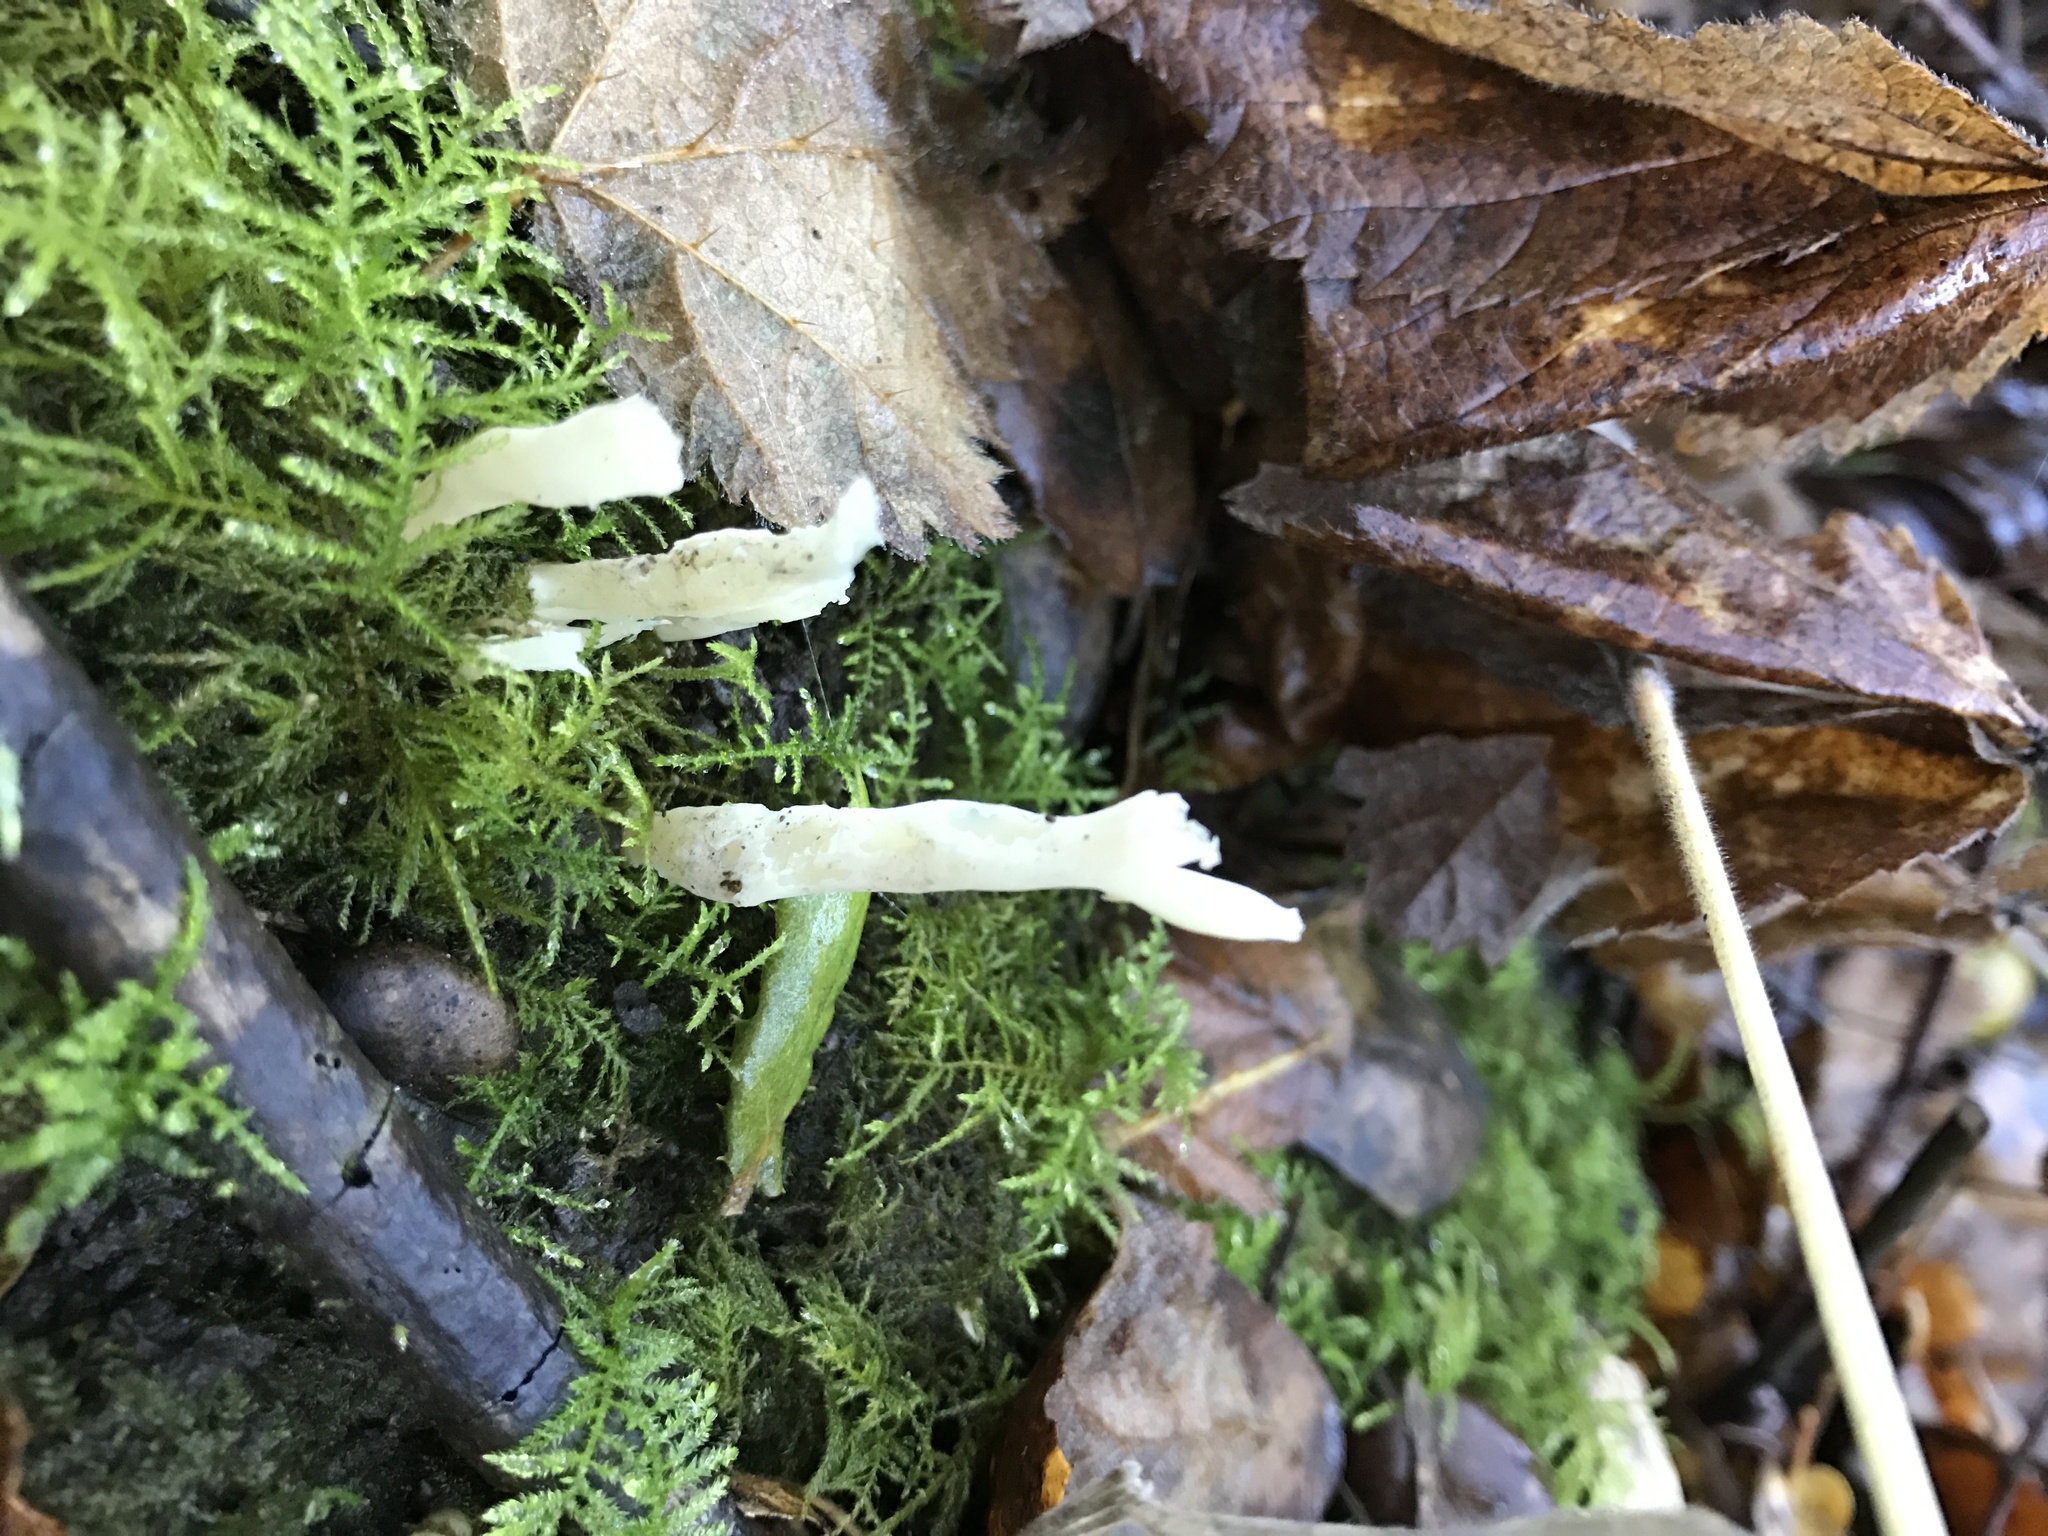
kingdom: Fungi
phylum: Basidiomycota
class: Agaricomycetes
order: Cantharellales
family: Hydnaceae
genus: Clavulina
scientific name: Clavulina rugosa
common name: Wrinkled club
